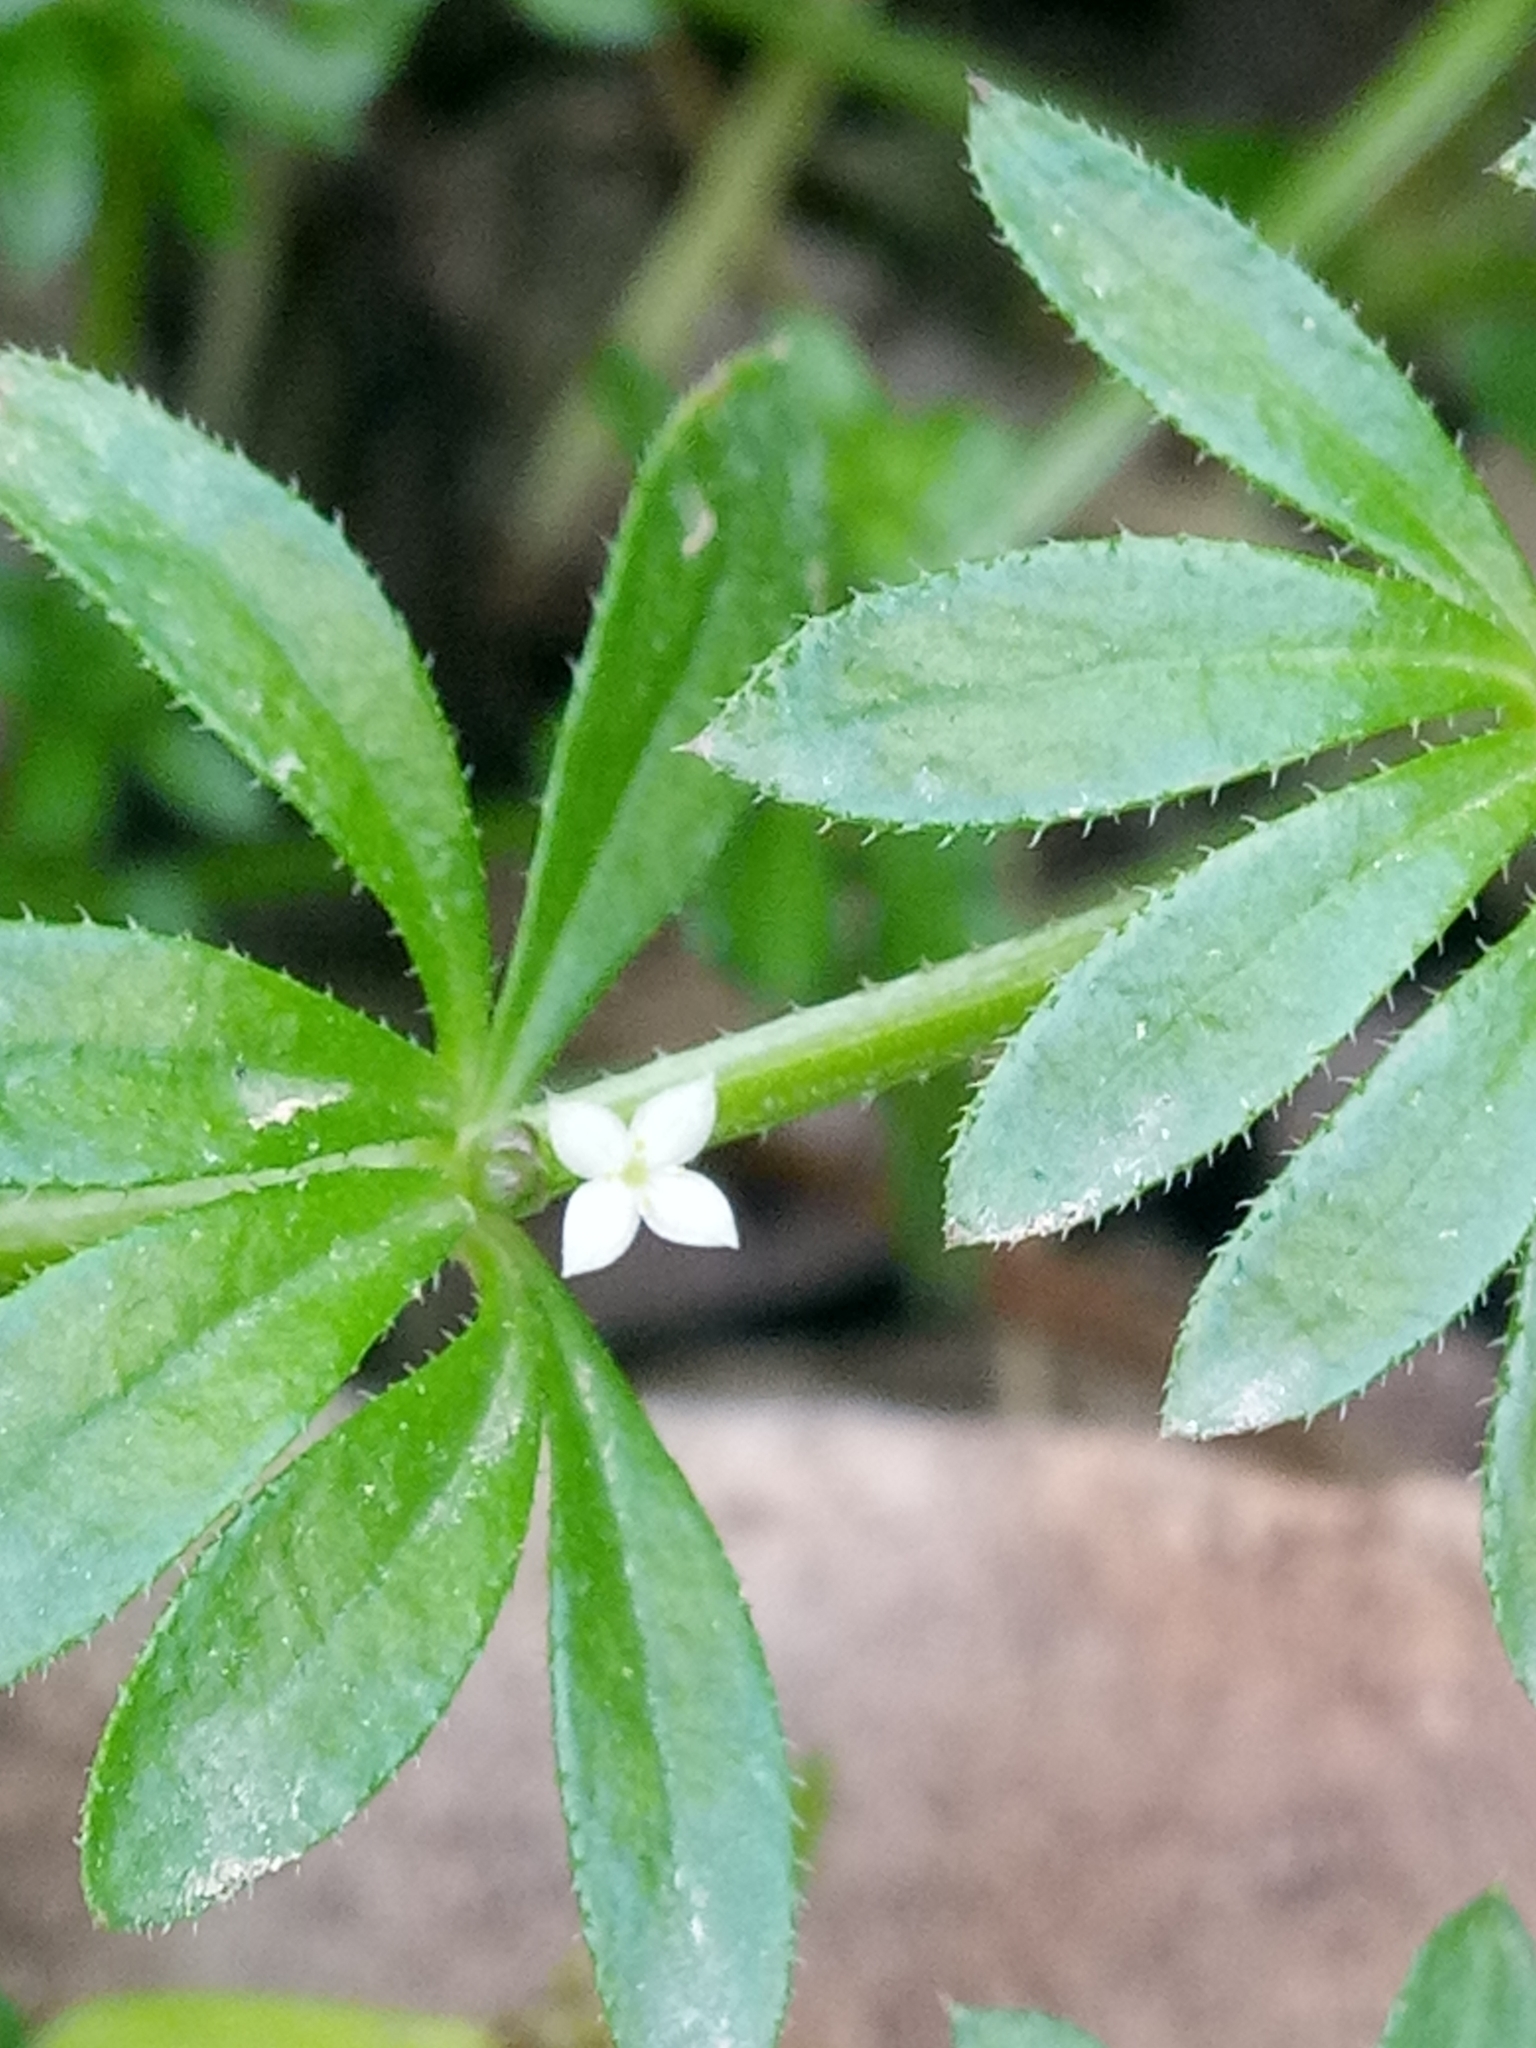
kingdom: Plantae
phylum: Tracheophyta
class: Magnoliopsida
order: Gentianales
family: Rubiaceae
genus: Galium
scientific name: Galium verrucosum
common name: Warty bedstraw
